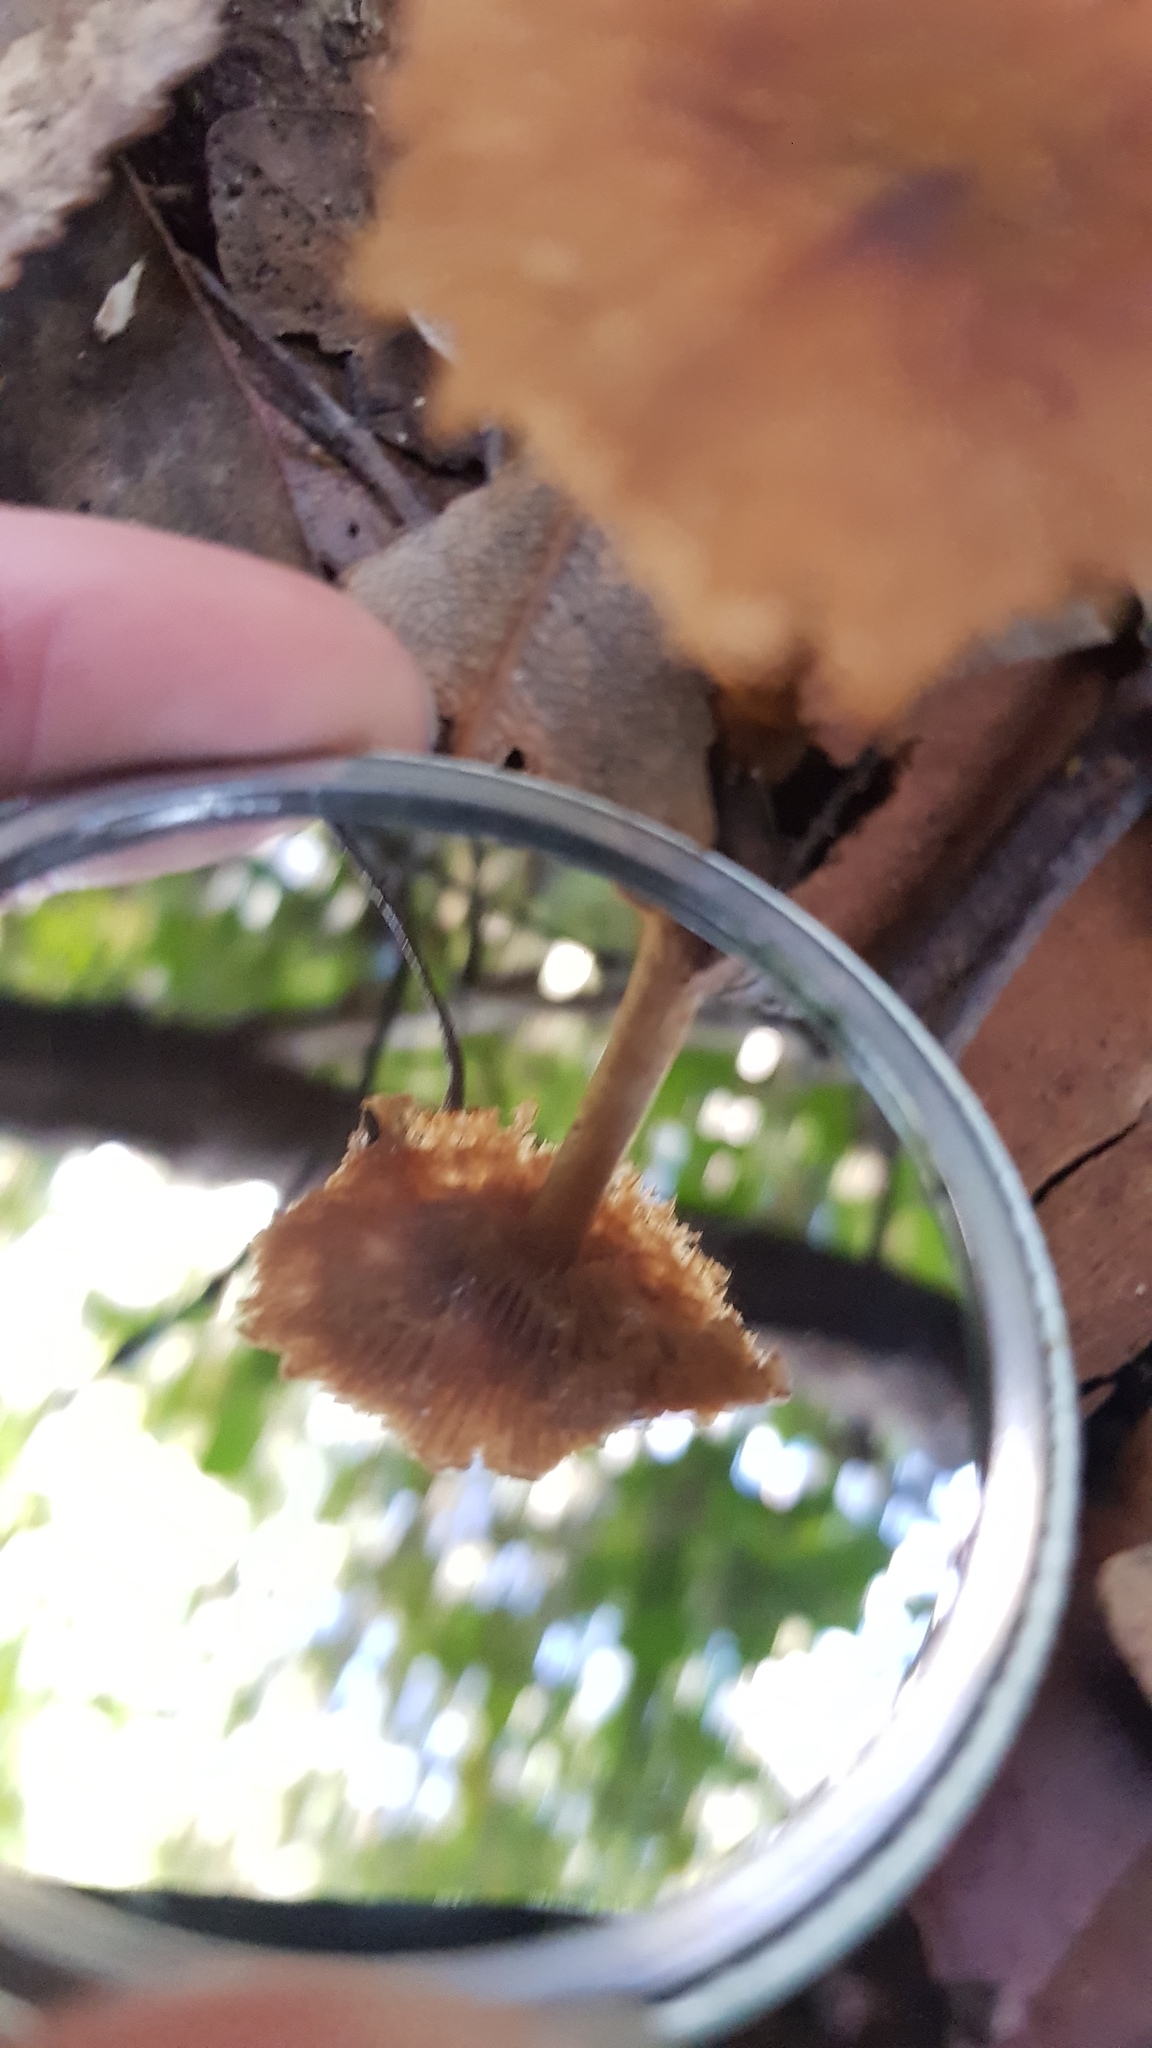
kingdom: Fungi
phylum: Basidiomycota
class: Agaricomycetes
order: Agaricales
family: Bolbitiaceae
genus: Descolea
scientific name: Descolea recedens
